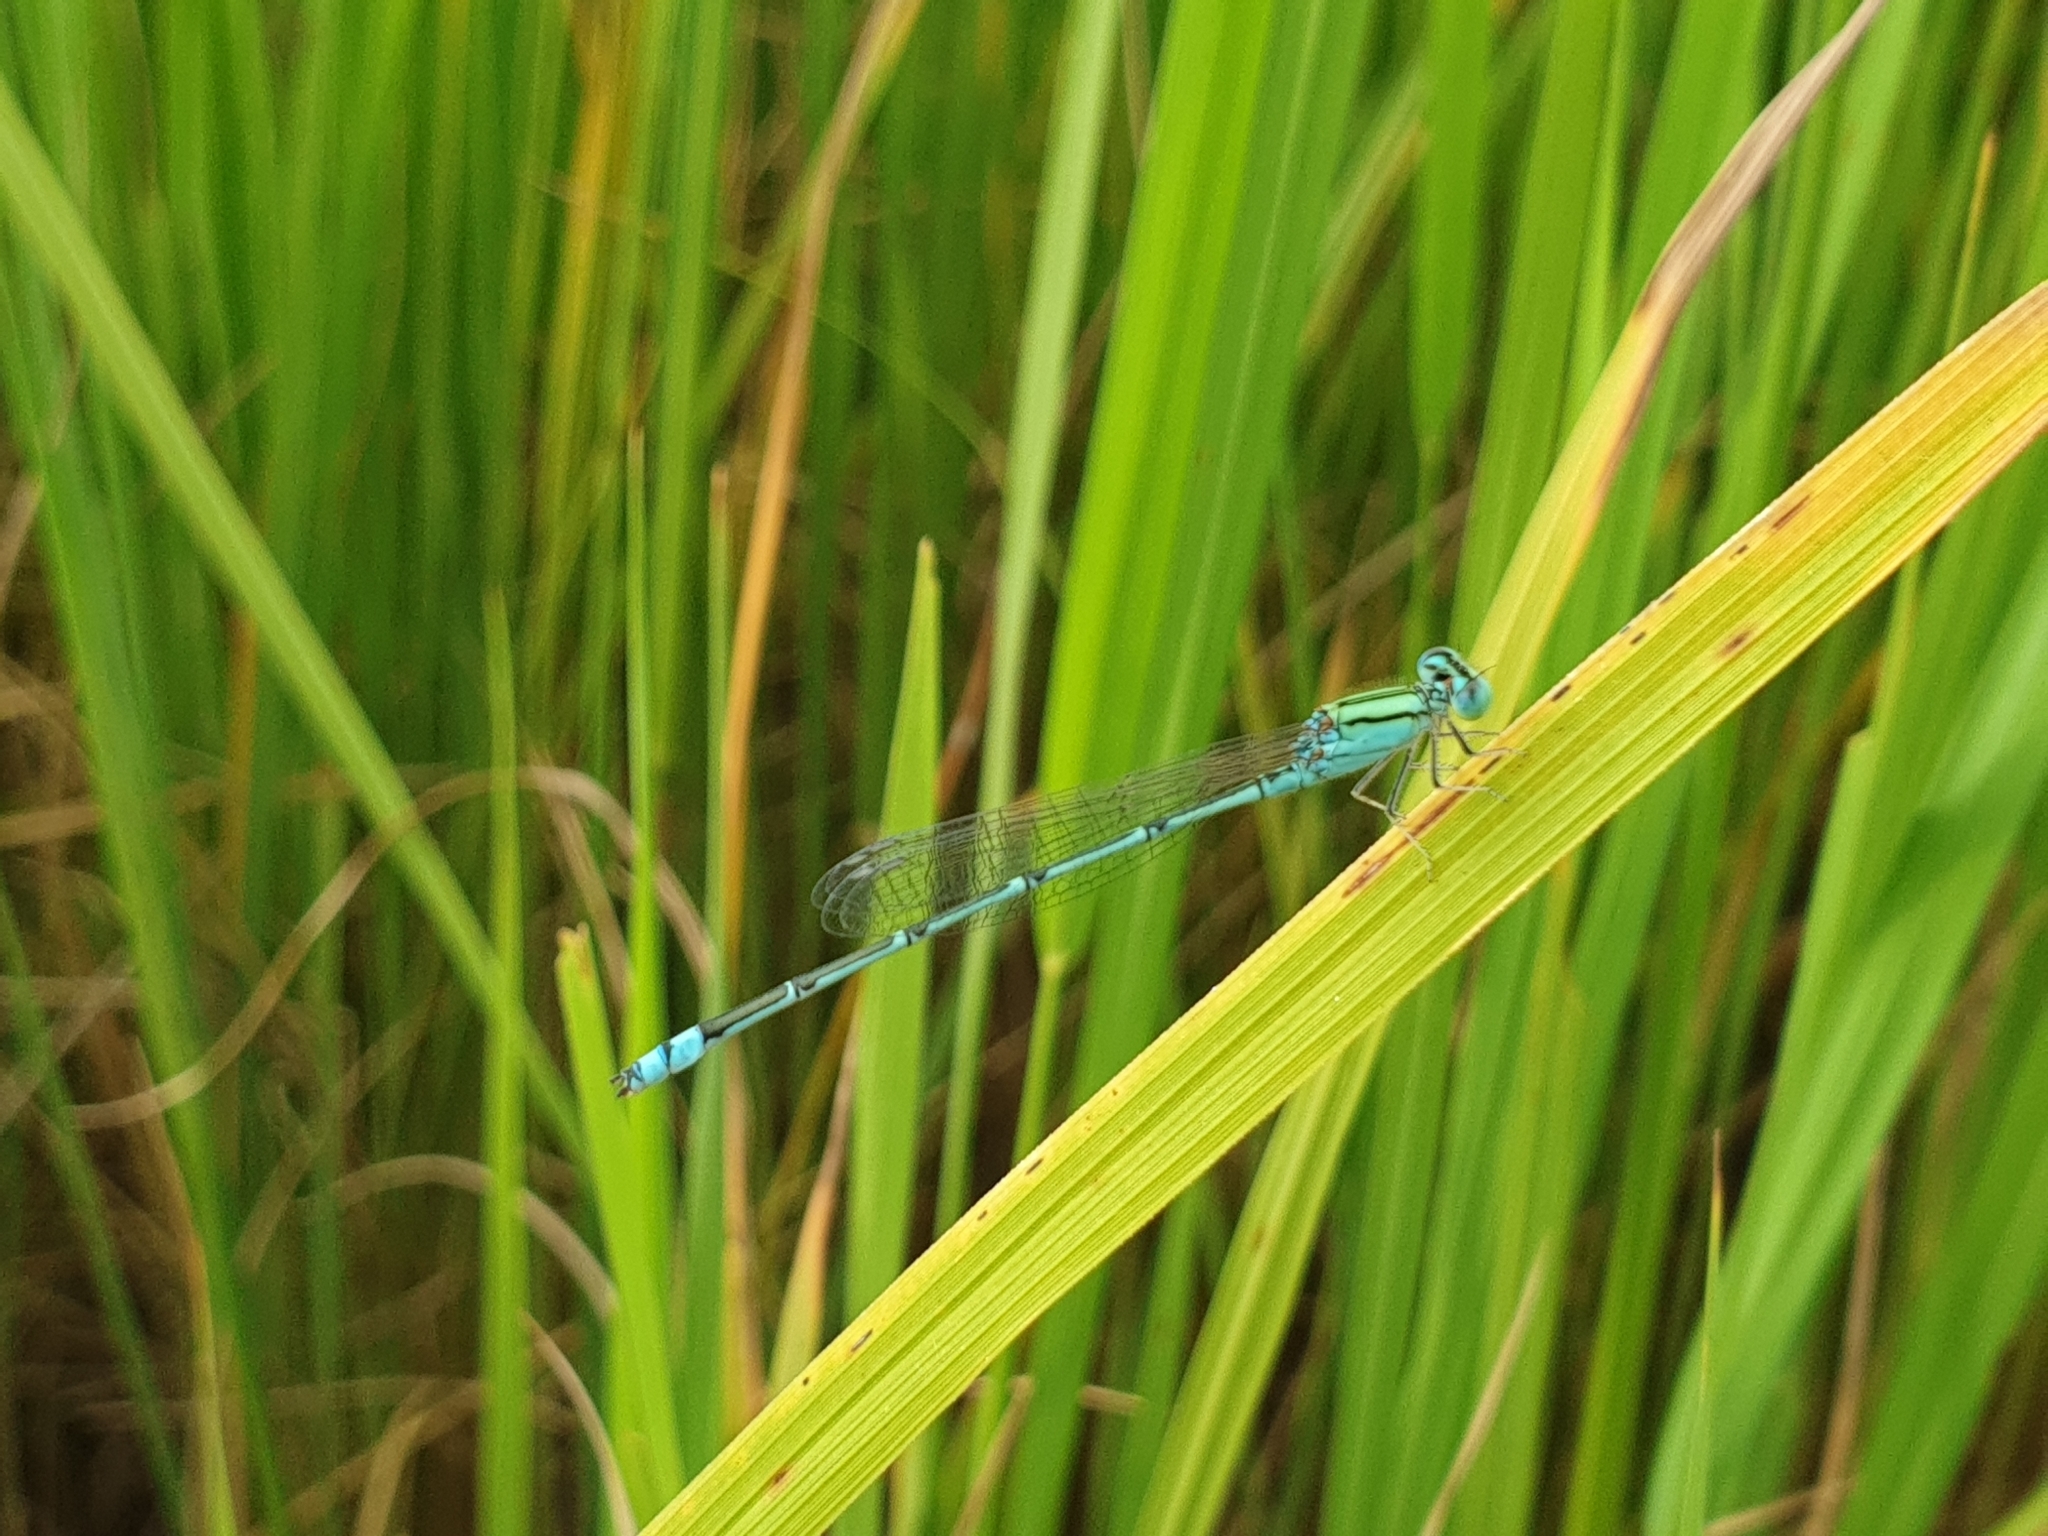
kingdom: Animalia
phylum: Arthropoda
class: Insecta
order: Odonata
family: Coenagrionidae
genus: Pseudagrion
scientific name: Pseudagrion decorum
